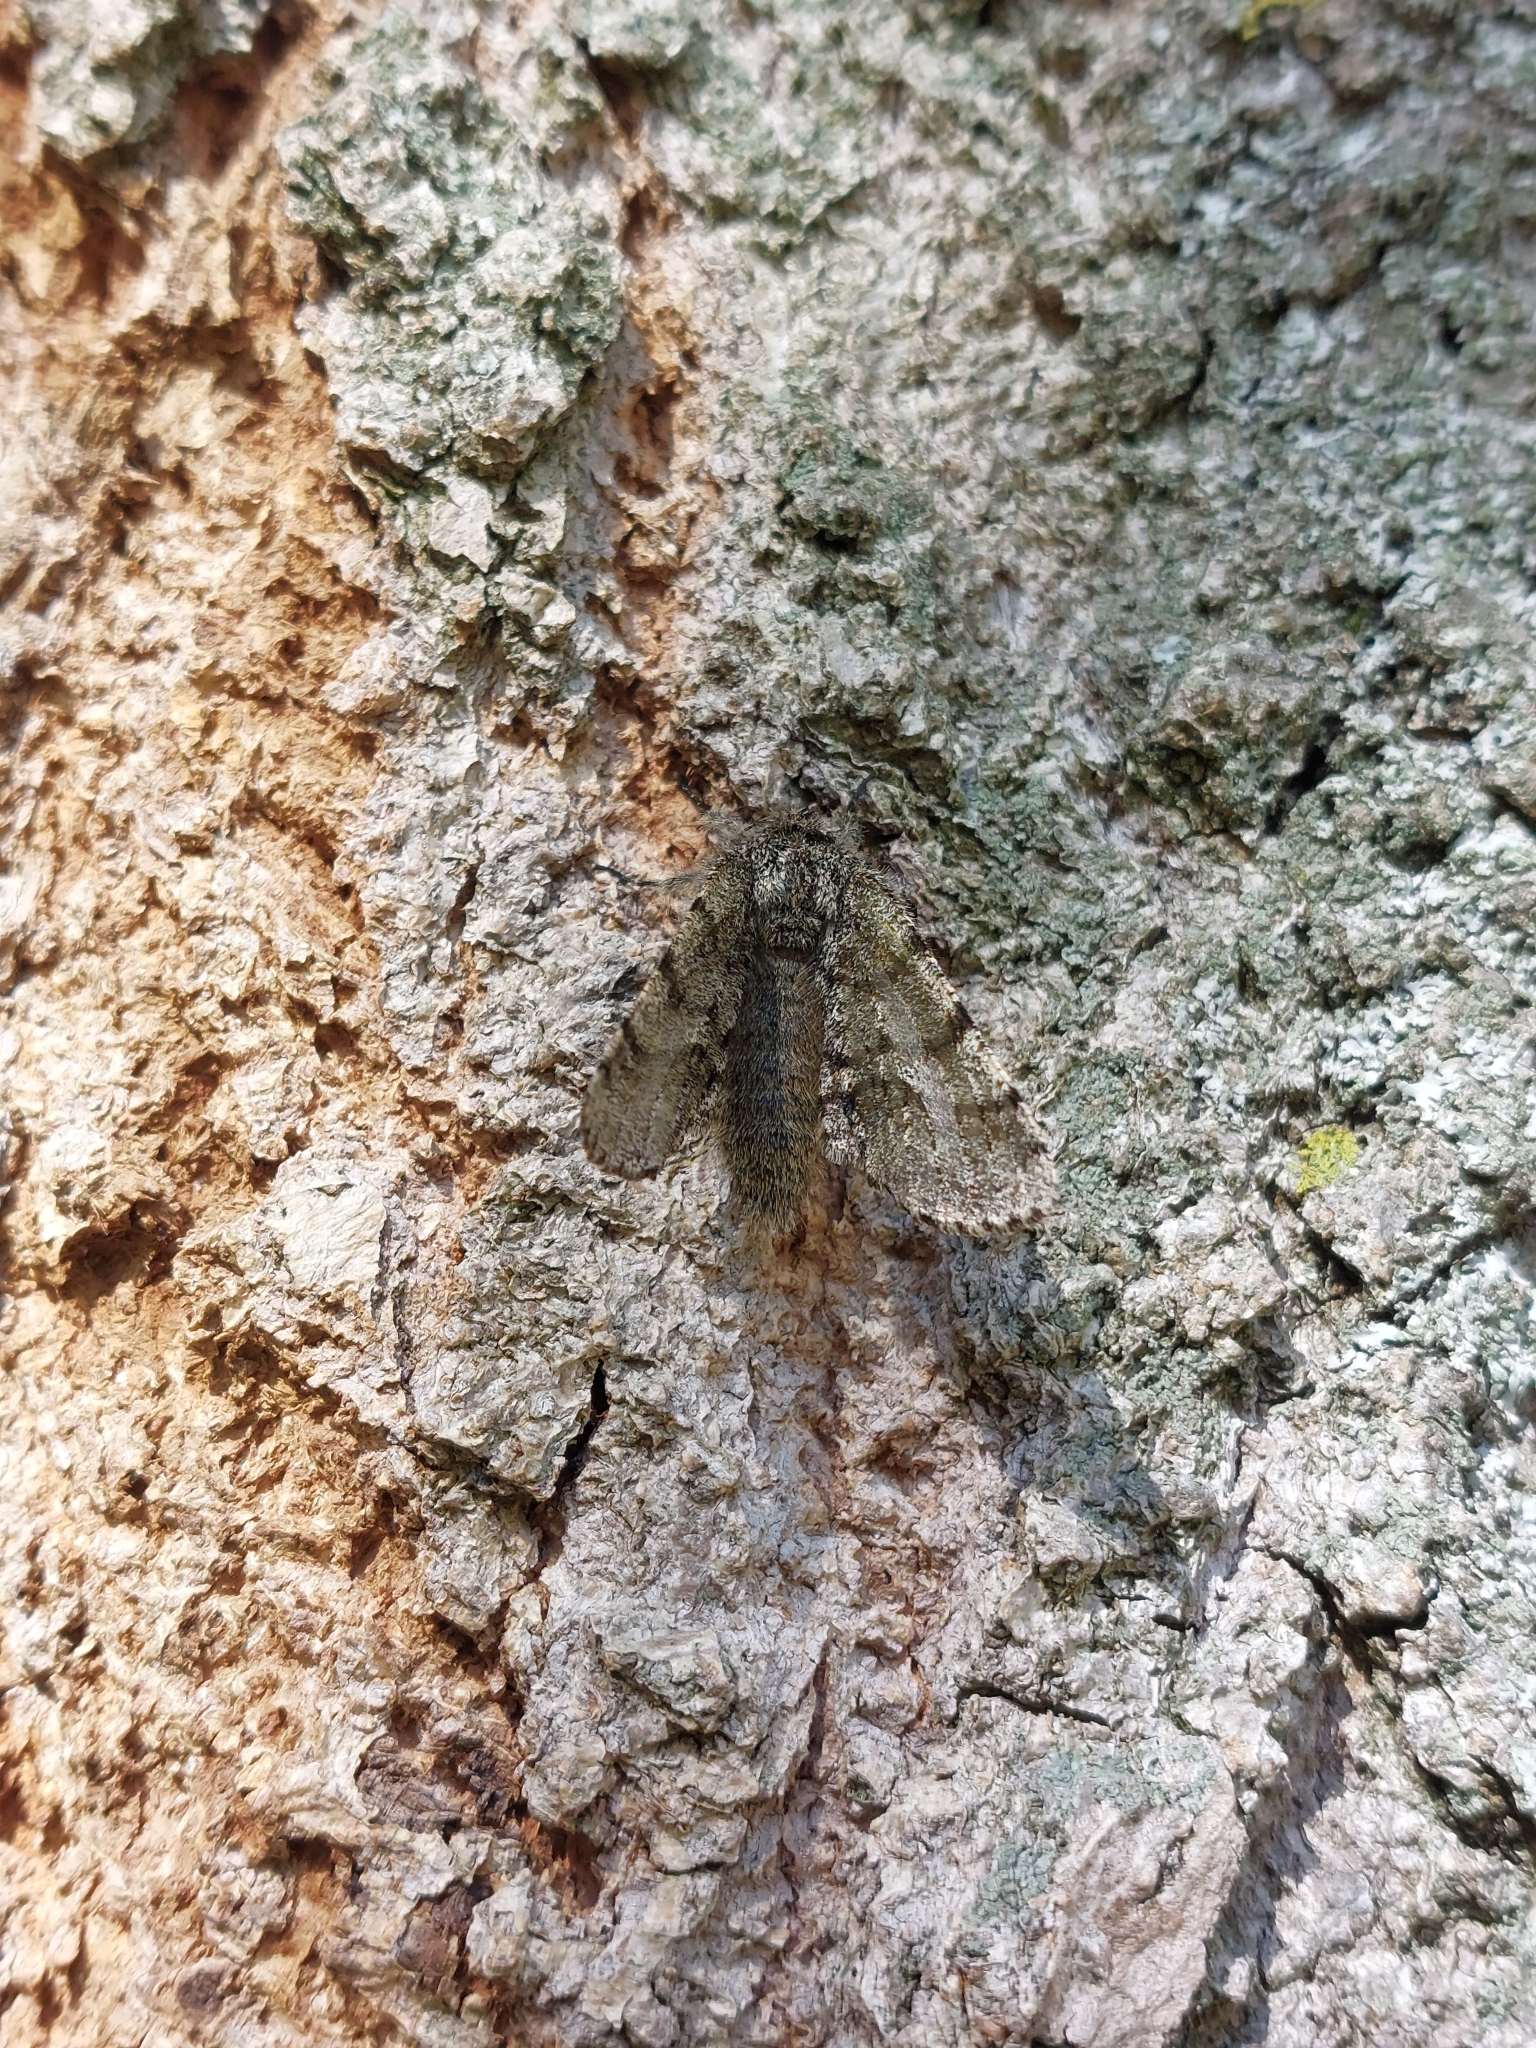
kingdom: Animalia
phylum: Arthropoda
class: Insecta
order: Lepidoptera
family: Geometridae
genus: Lycia
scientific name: Lycia hirtaria
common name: Brindled beauty
